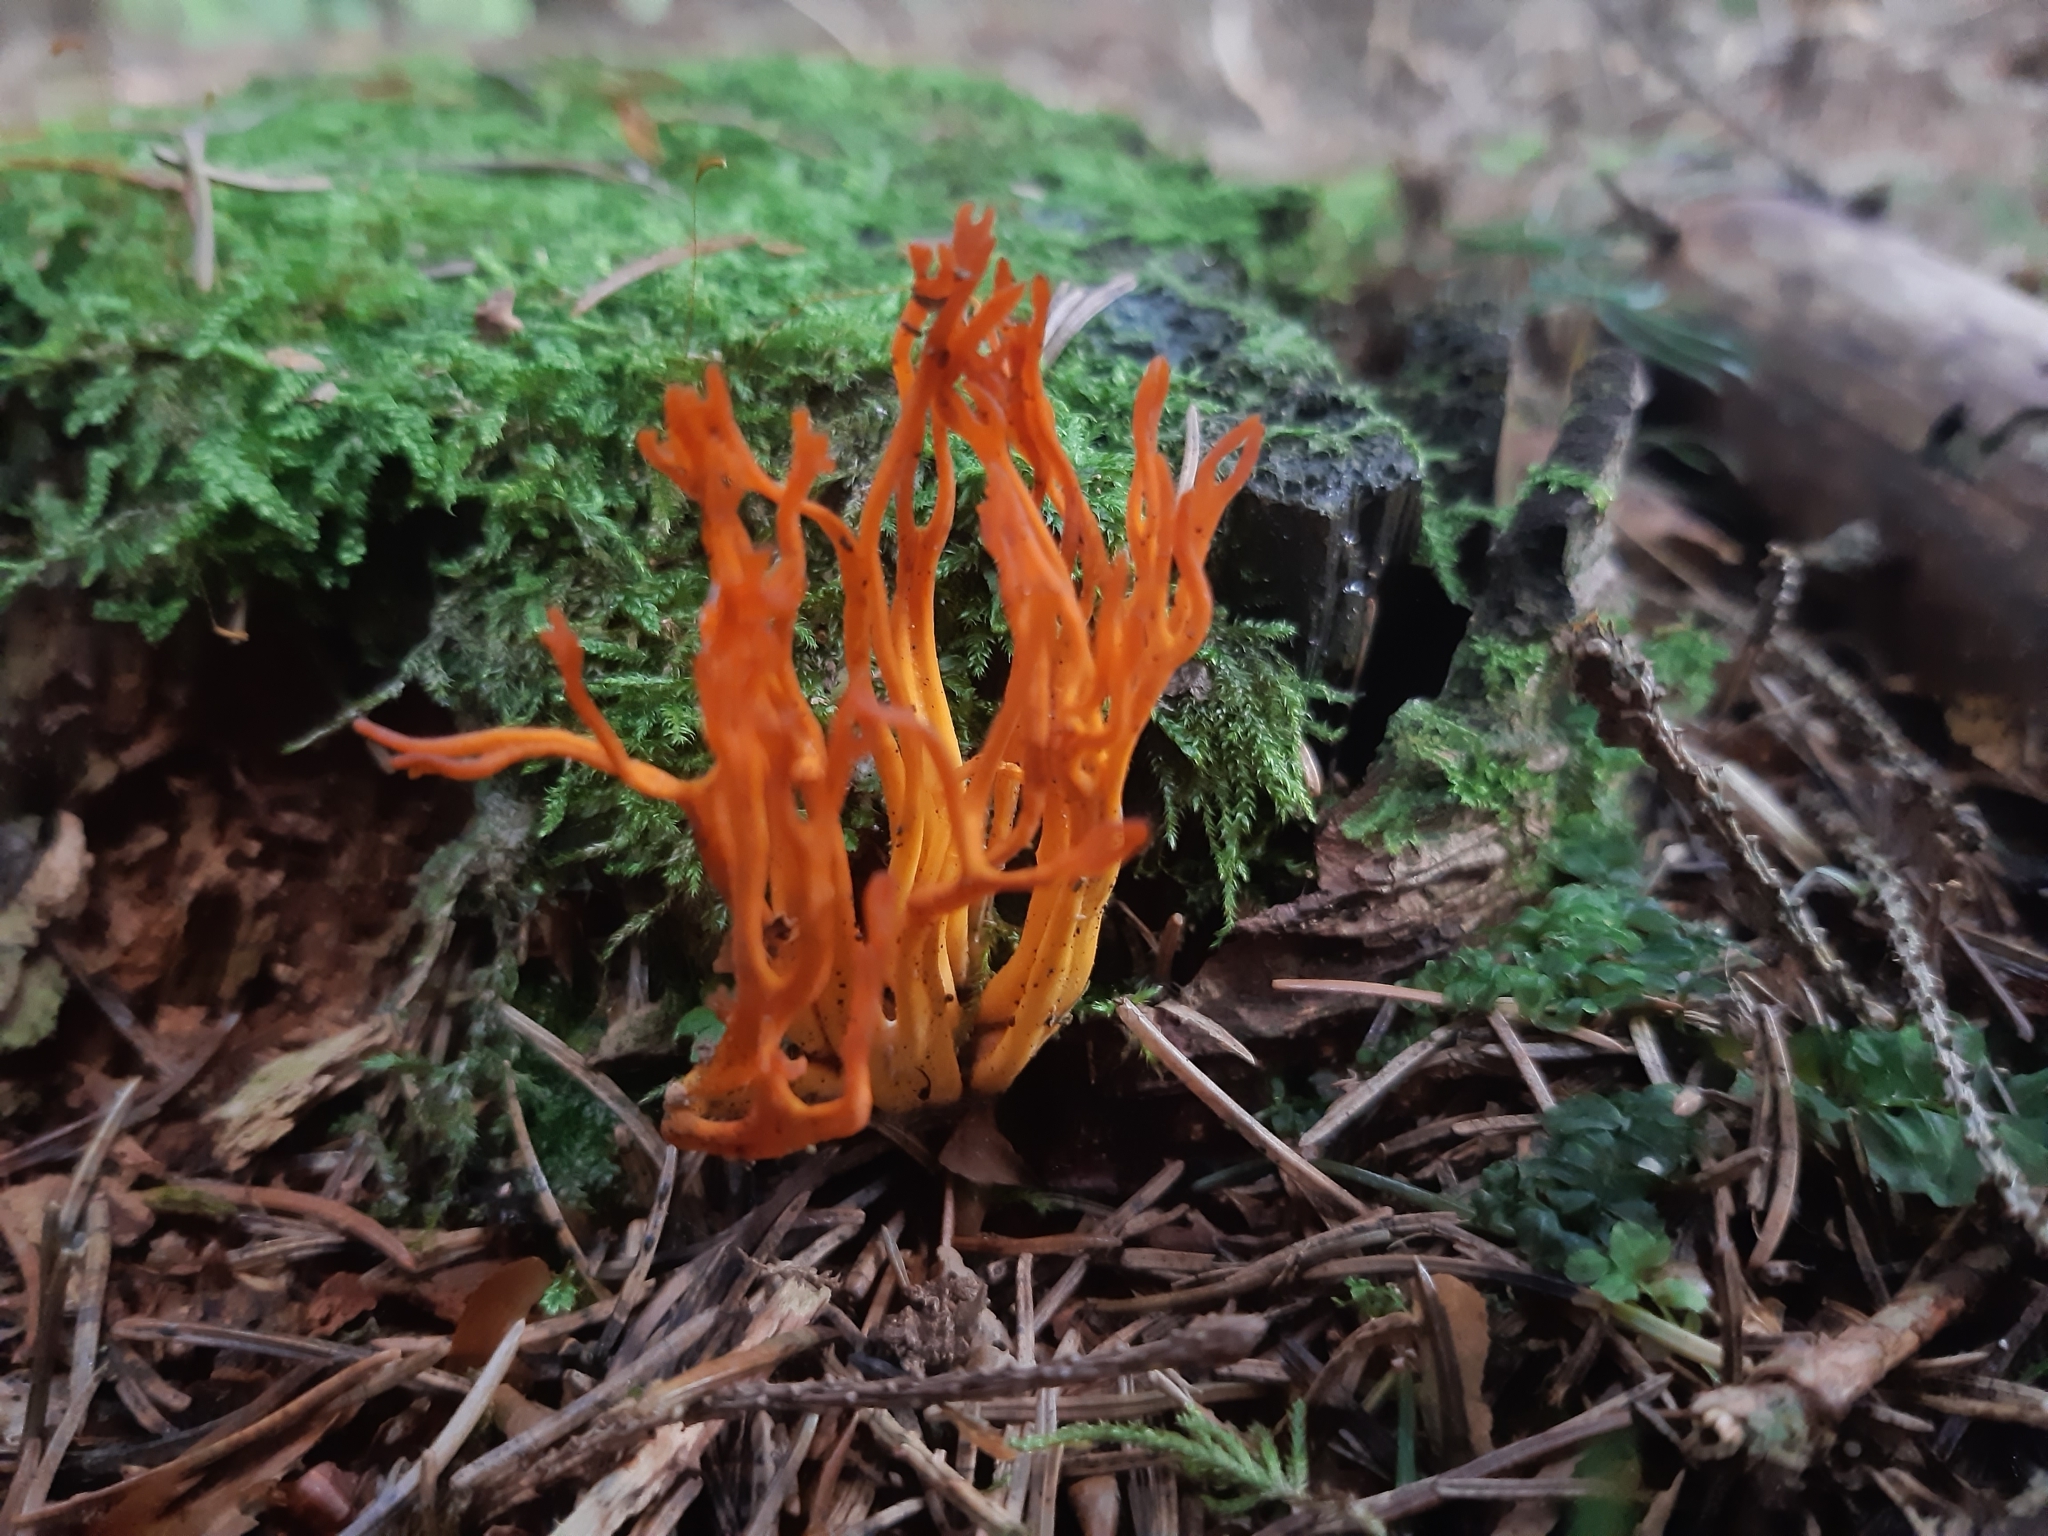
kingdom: Fungi
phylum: Basidiomycota
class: Dacrymycetes
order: Dacrymycetales
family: Dacrymycetaceae
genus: Calocera
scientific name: Calocera viscosa
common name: Yellow stagshorn
